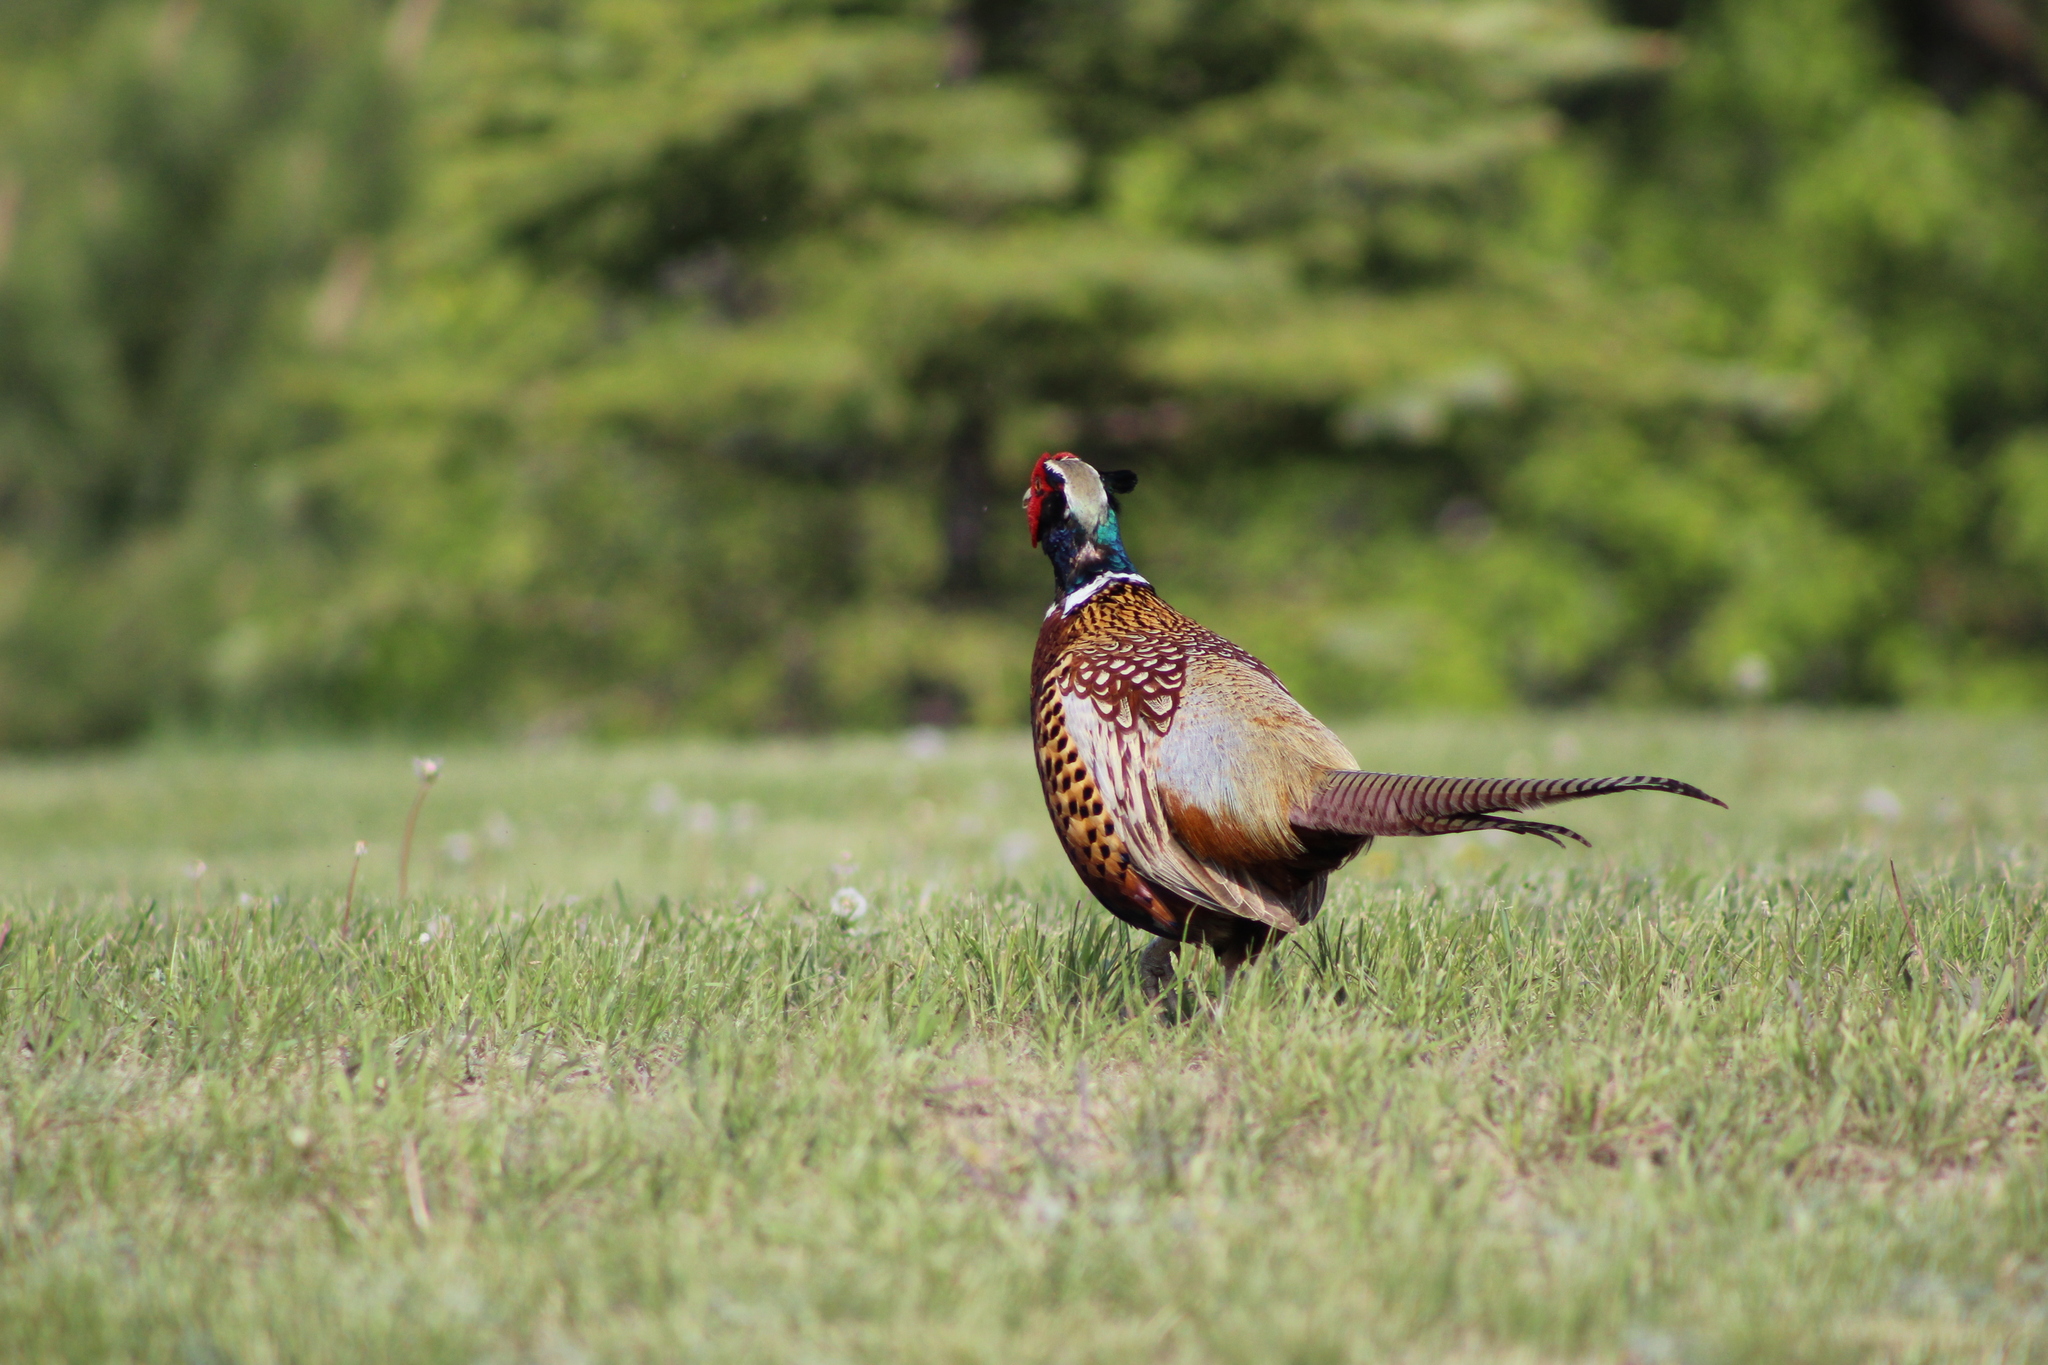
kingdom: Animalia
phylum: Chordata
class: Aves
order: Galliformes
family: Phasianidae
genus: Phasianus
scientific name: Phasianus colchicus
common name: Common pheasant
